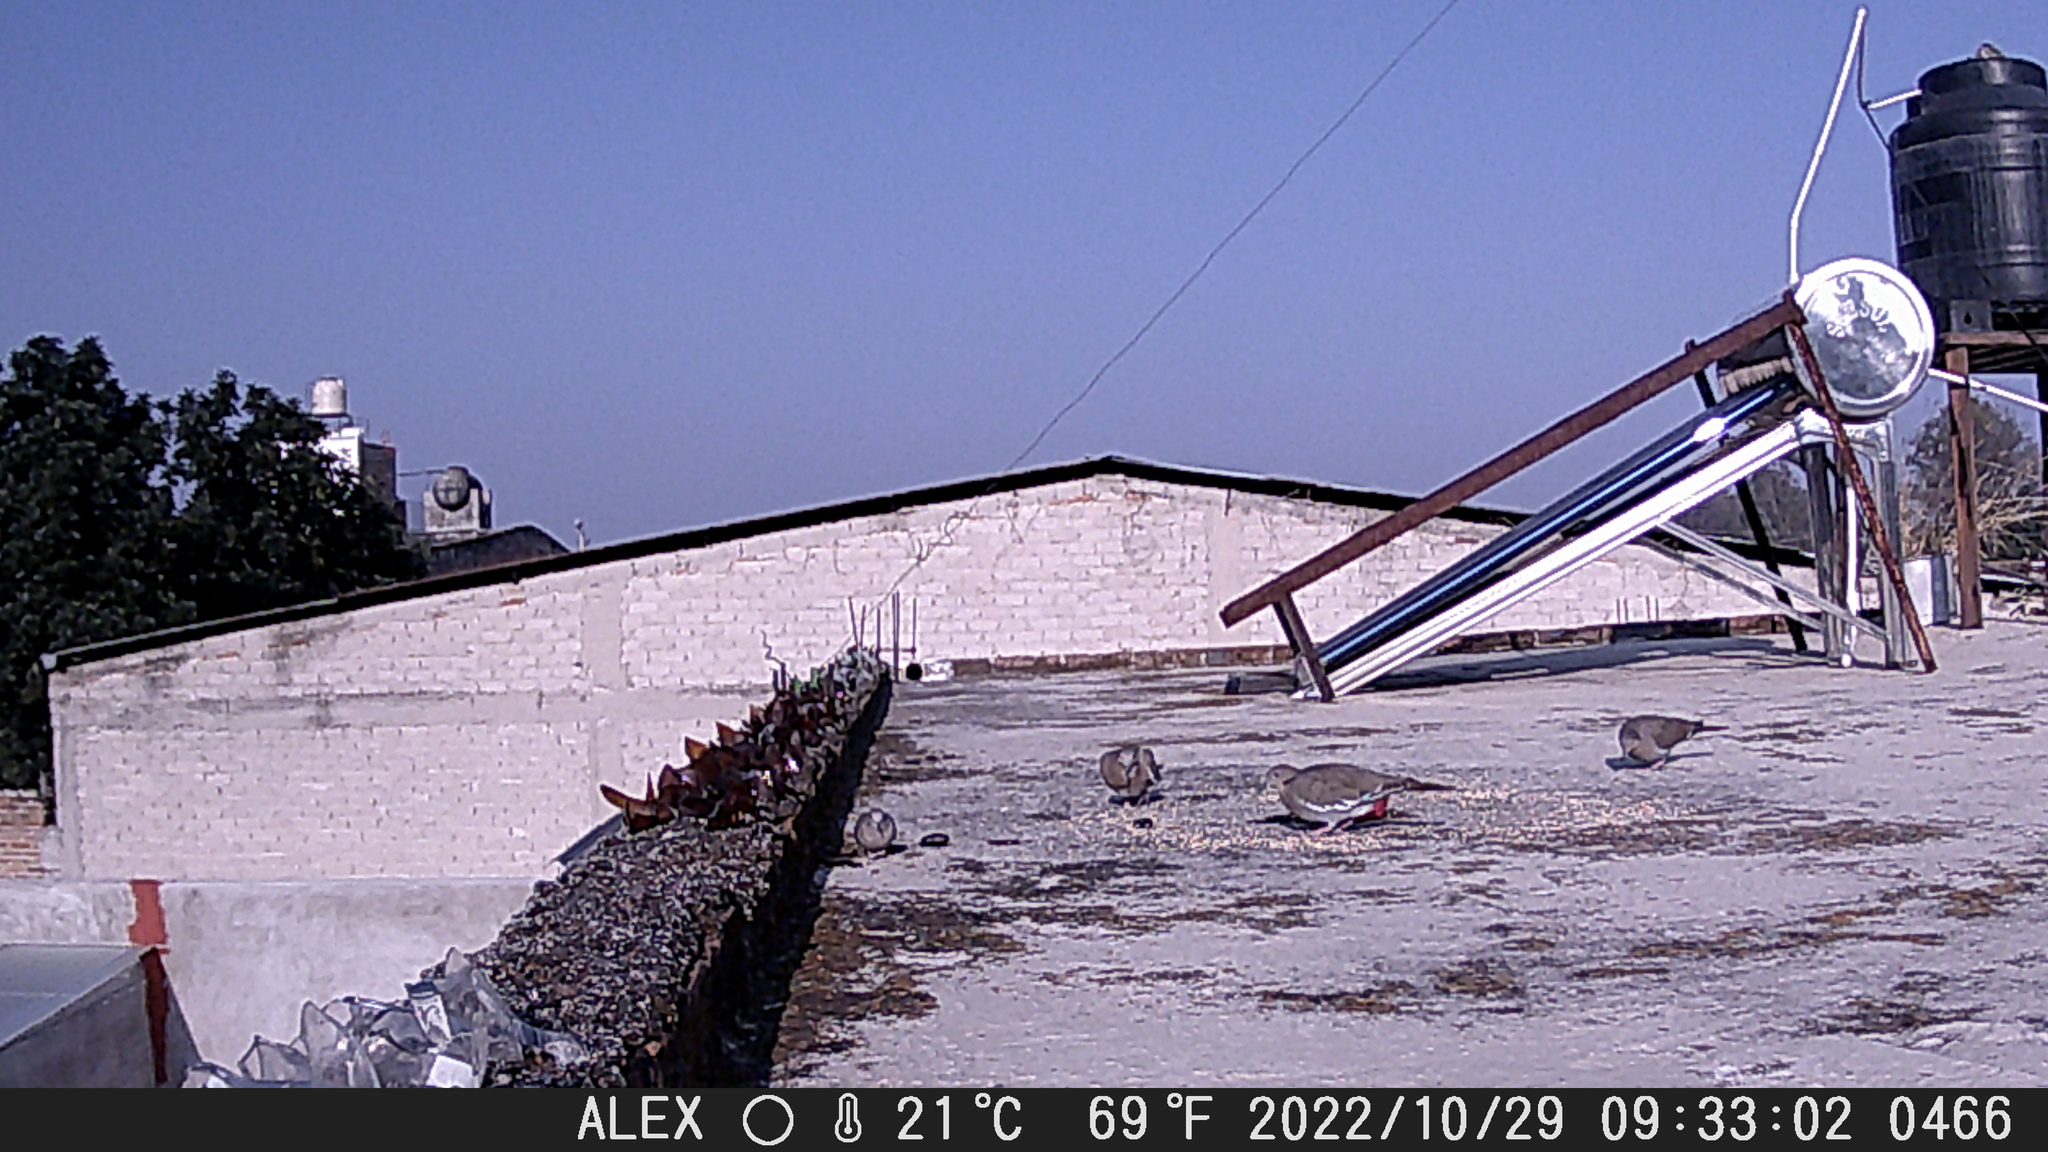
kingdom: Animalia
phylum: Chordata
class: Aves
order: Columbiformes
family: Columbidae
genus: Zenaida
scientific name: Zenaida asiatica
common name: White-winged dove
